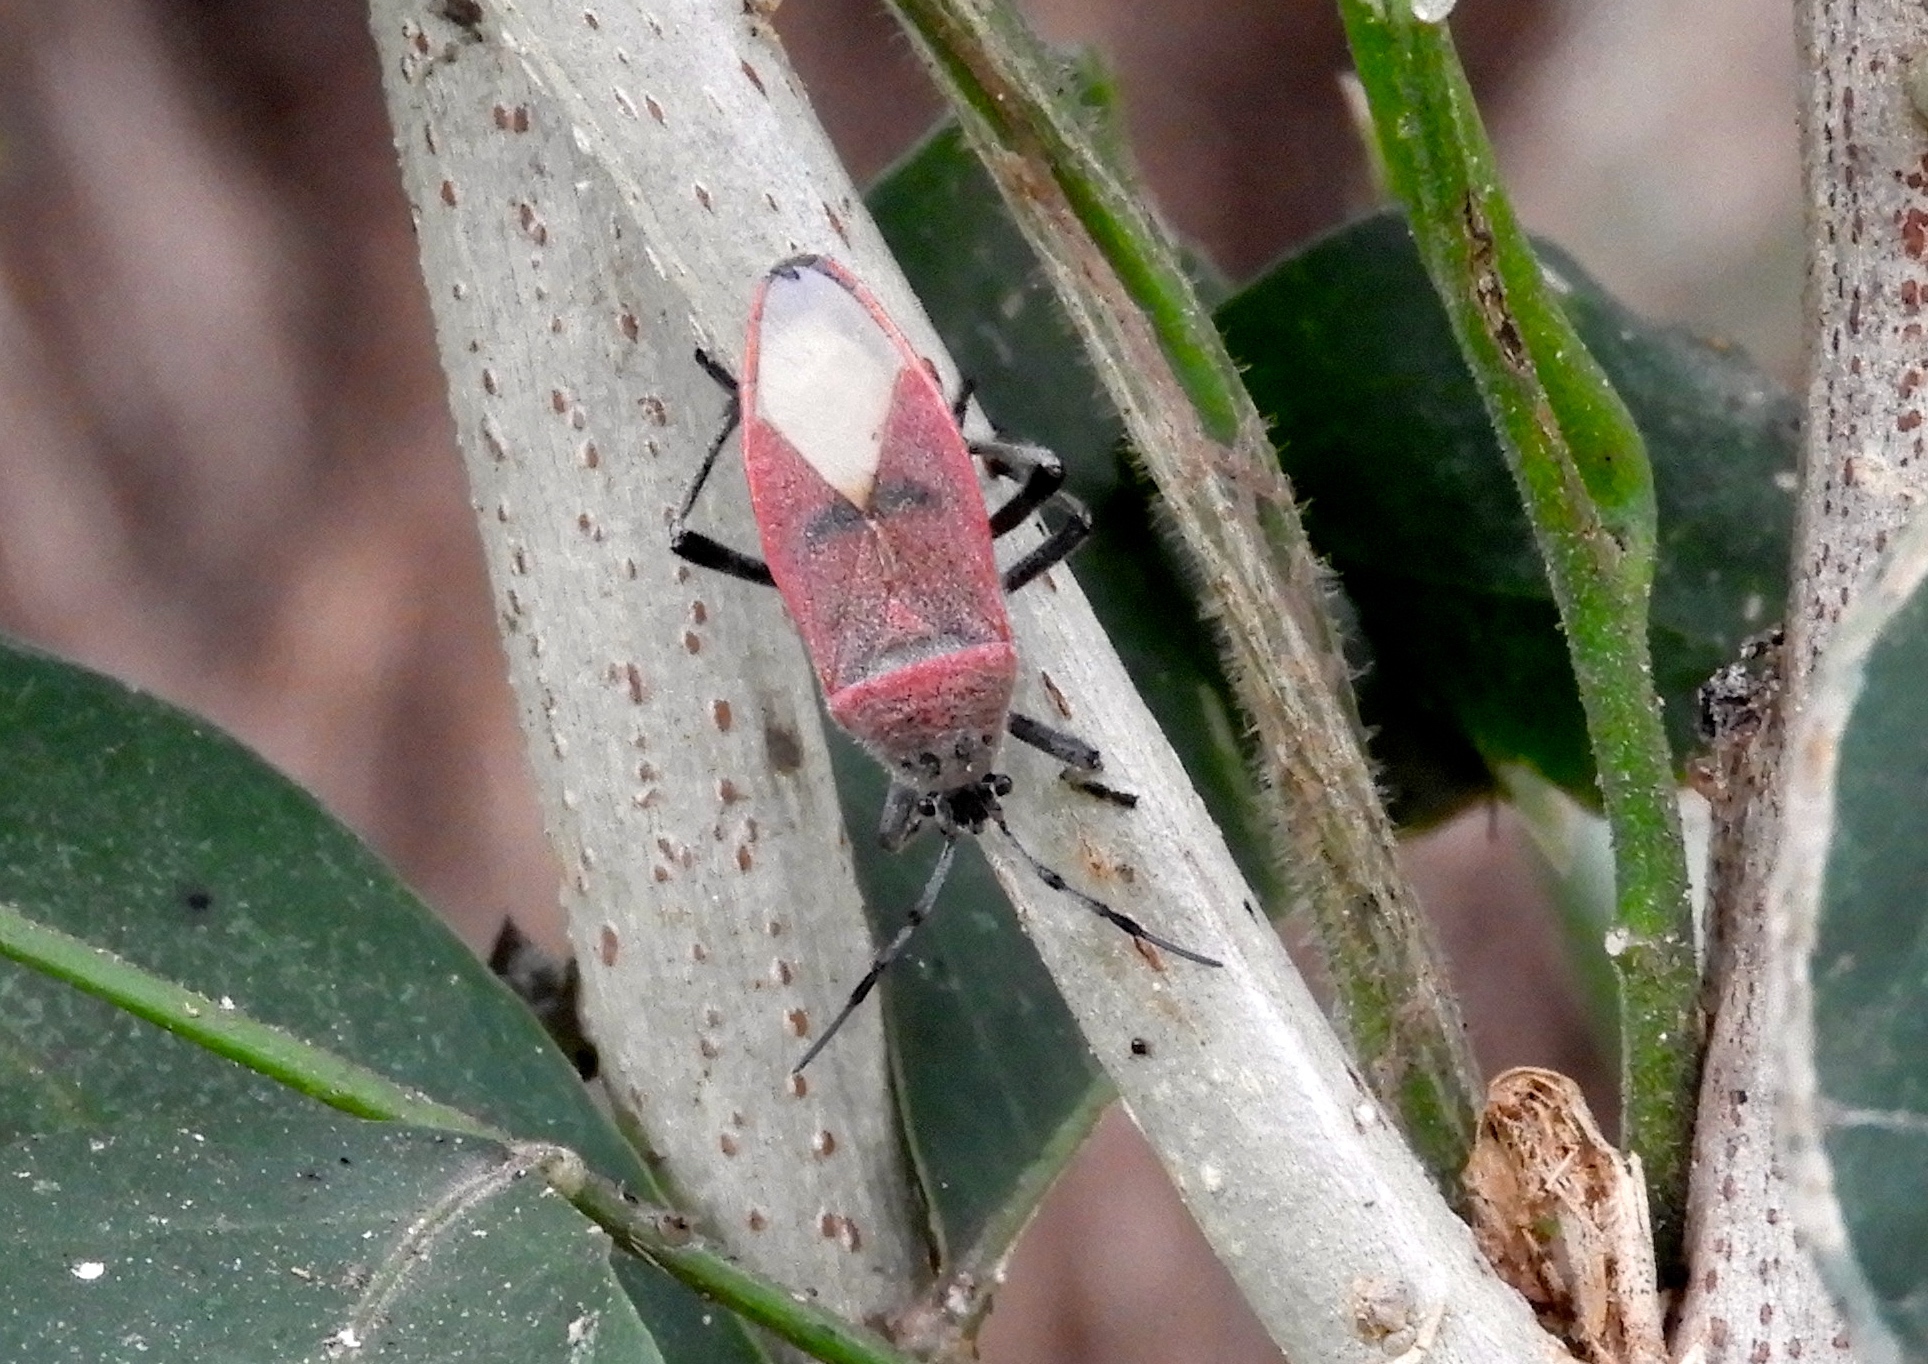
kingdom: Animalia
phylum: Arthropoda
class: Insecta
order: Hemiptera
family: Largidae
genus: Largus
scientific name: Largus
